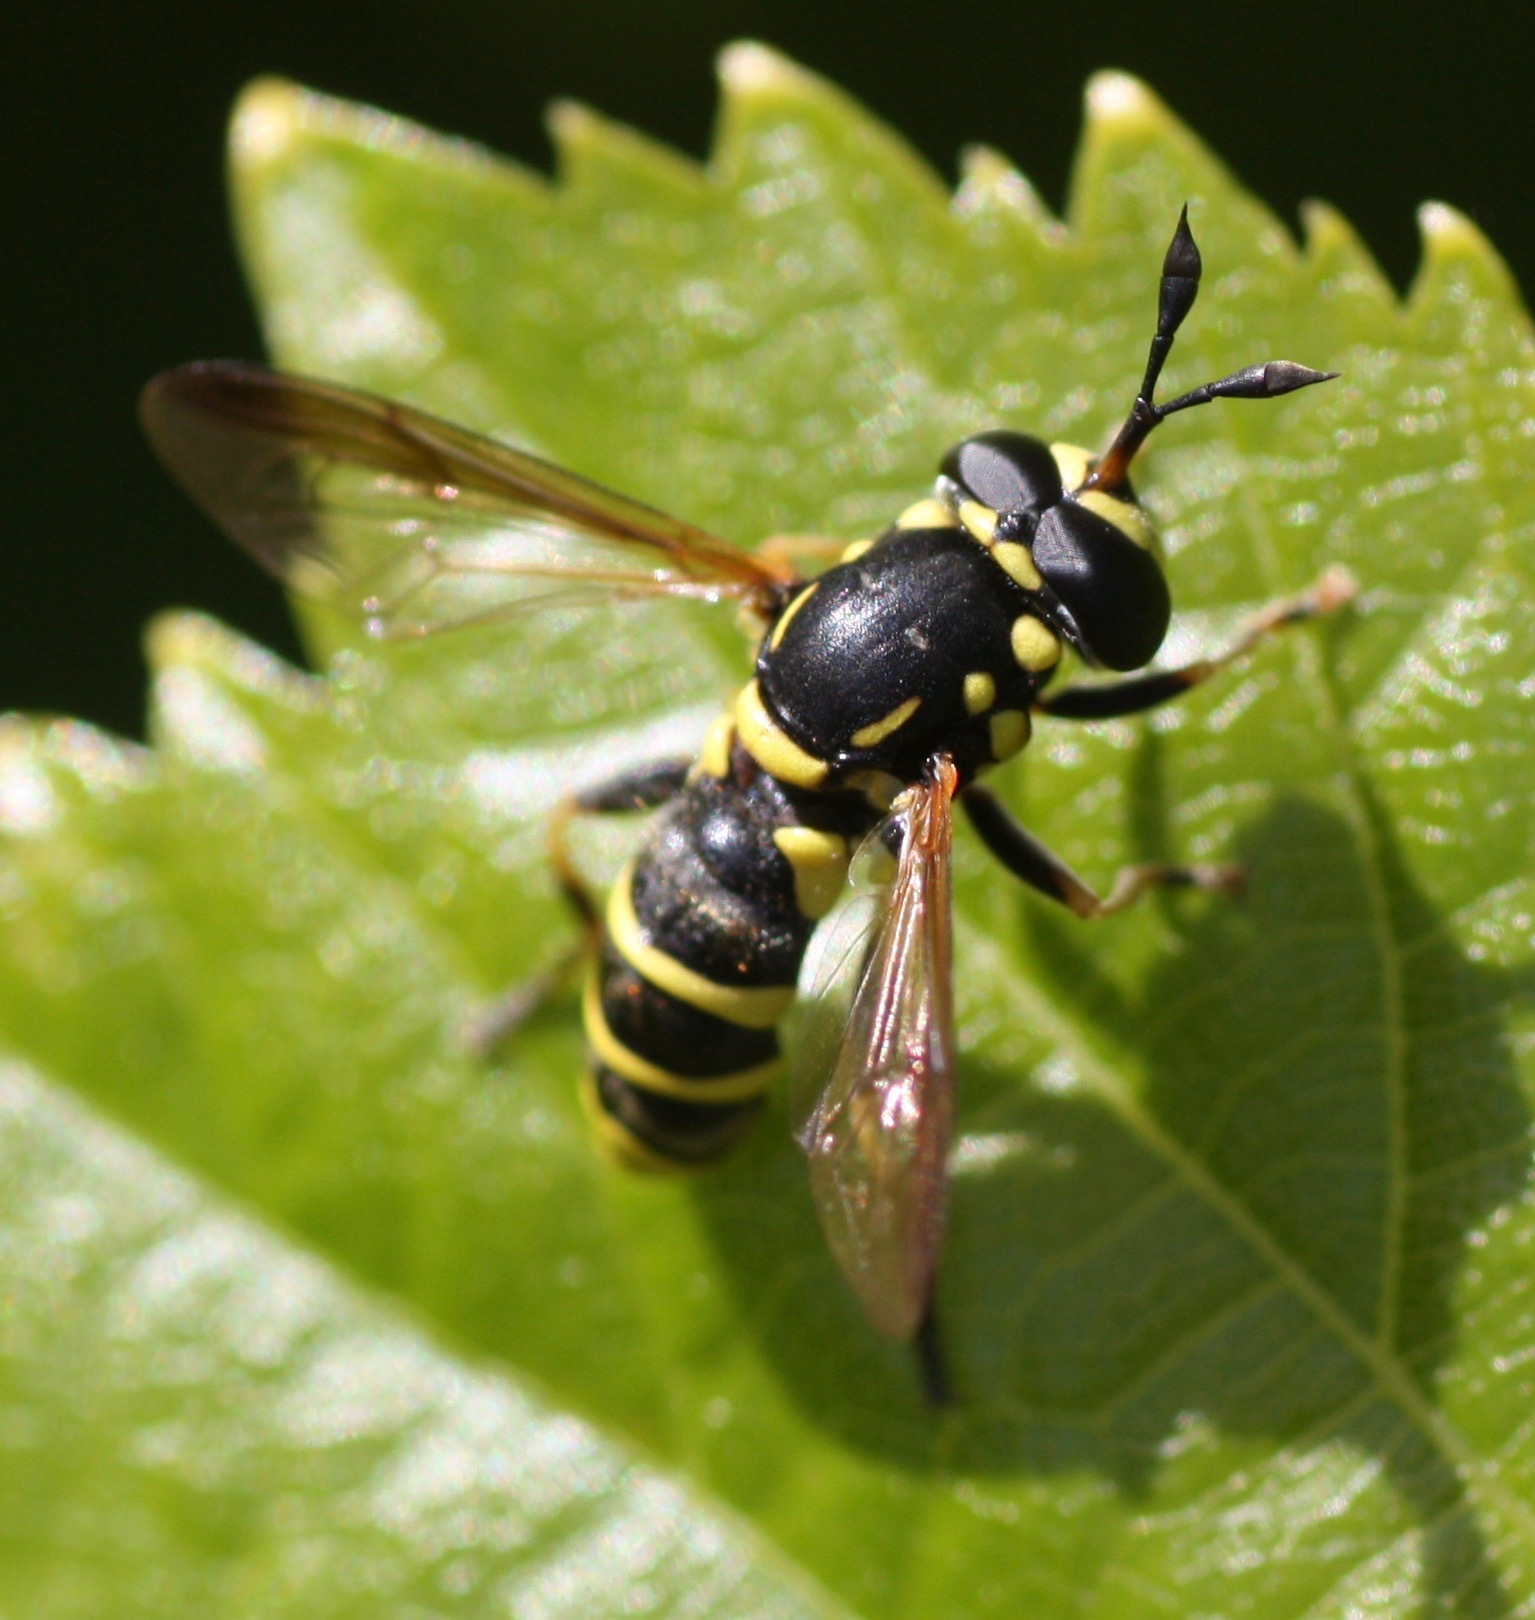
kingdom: Animalia
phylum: Arthropoda
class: Insecta
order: Diptera
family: Syrphidae
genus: Ceriana
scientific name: Ceriana tridens
